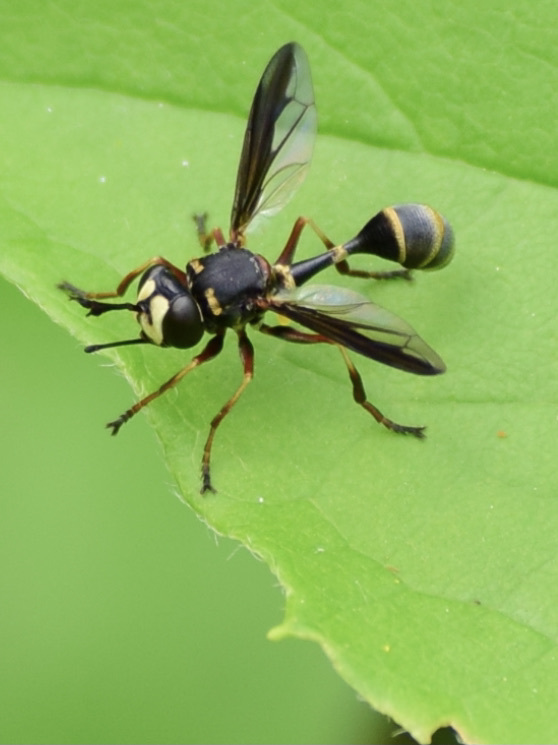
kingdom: Animalia
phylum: Arthropoda
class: Insecta
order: Diptera
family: Conopidae
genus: Physocephala
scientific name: Physocephala marginata
